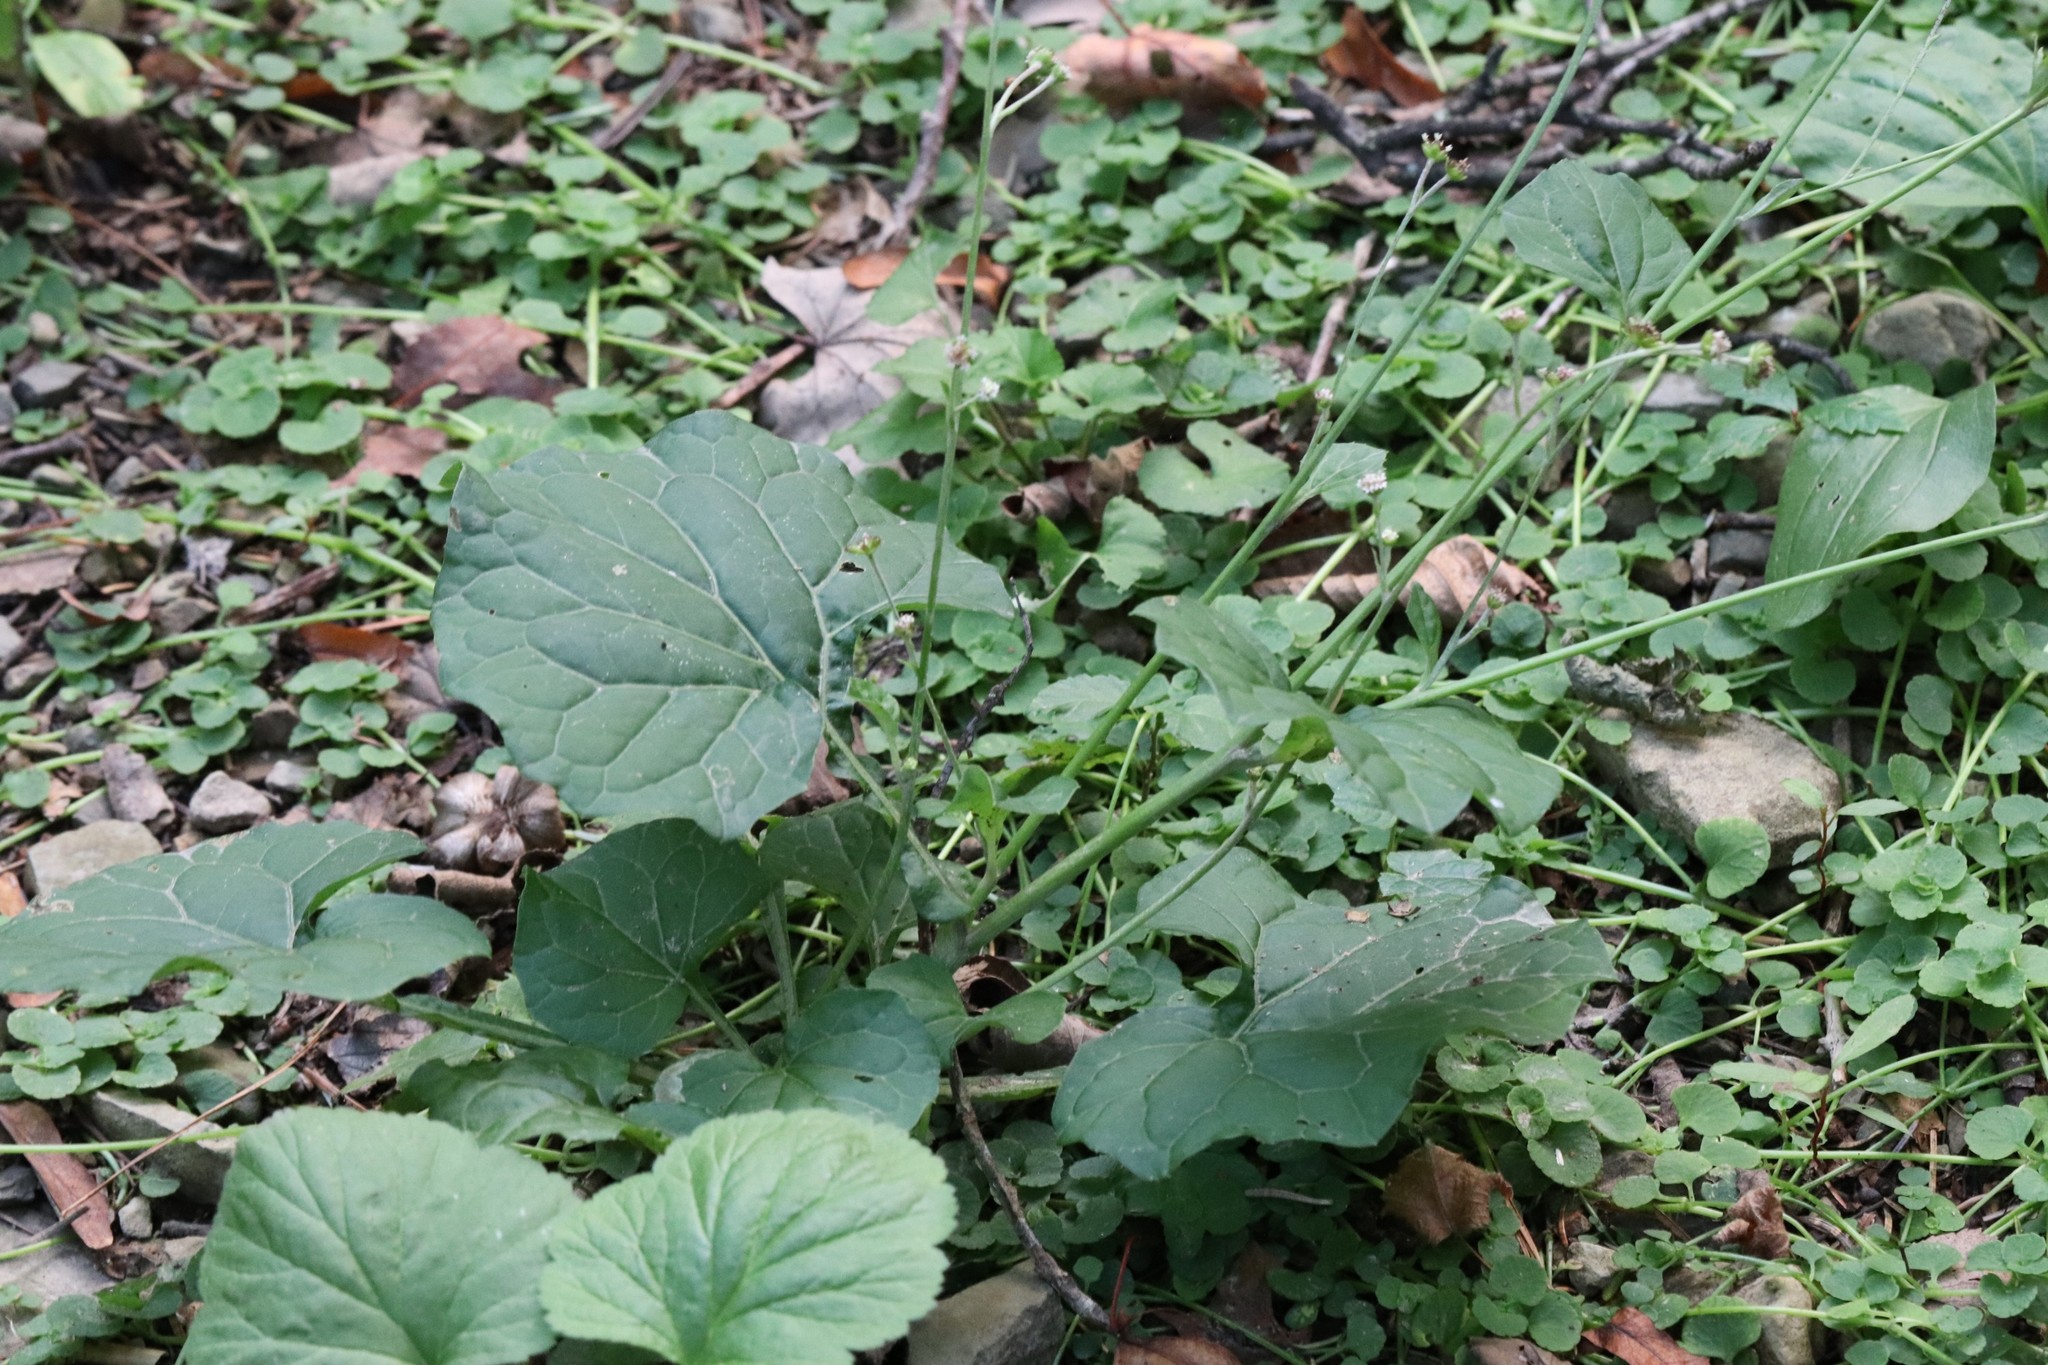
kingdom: Plantae
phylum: Tracheophyta
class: Magnoliopsida
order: Asterales
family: Asteraceae
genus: Adenocaulon
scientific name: Adenocaulon himalaicum
